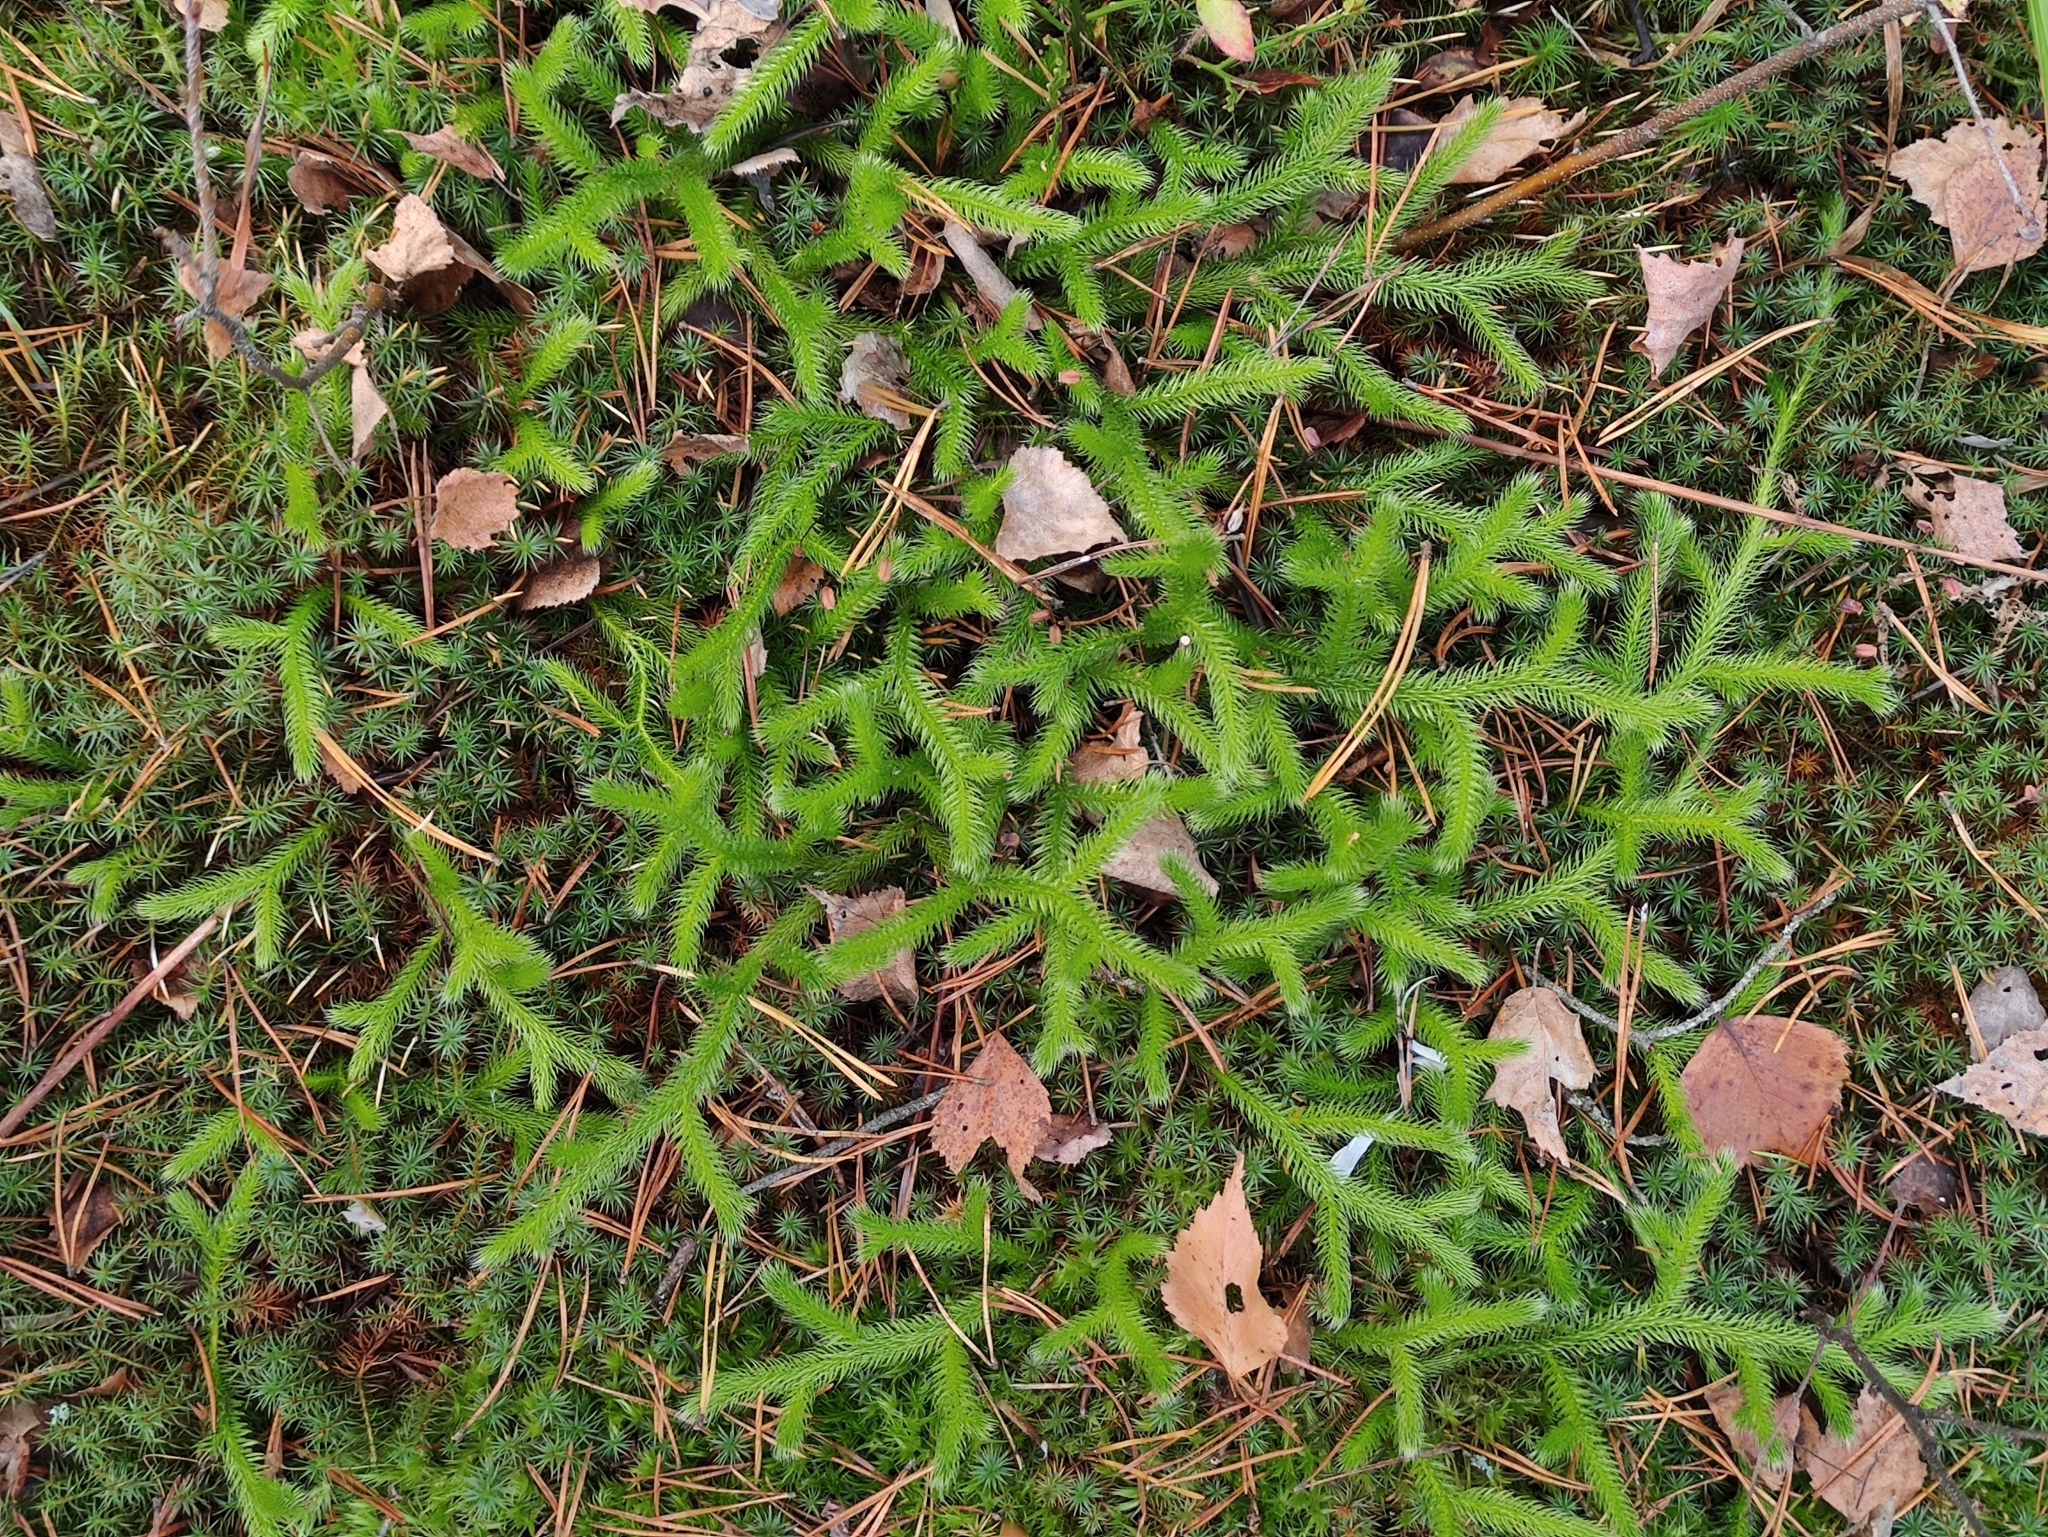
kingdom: Plantae
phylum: Tracheophyta
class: Lycopodiopsida
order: Lycopodiales
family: Lycopodiaceae
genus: Lycopodium
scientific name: Lycopodium clavatum
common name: Stag's-horn clubmoss
